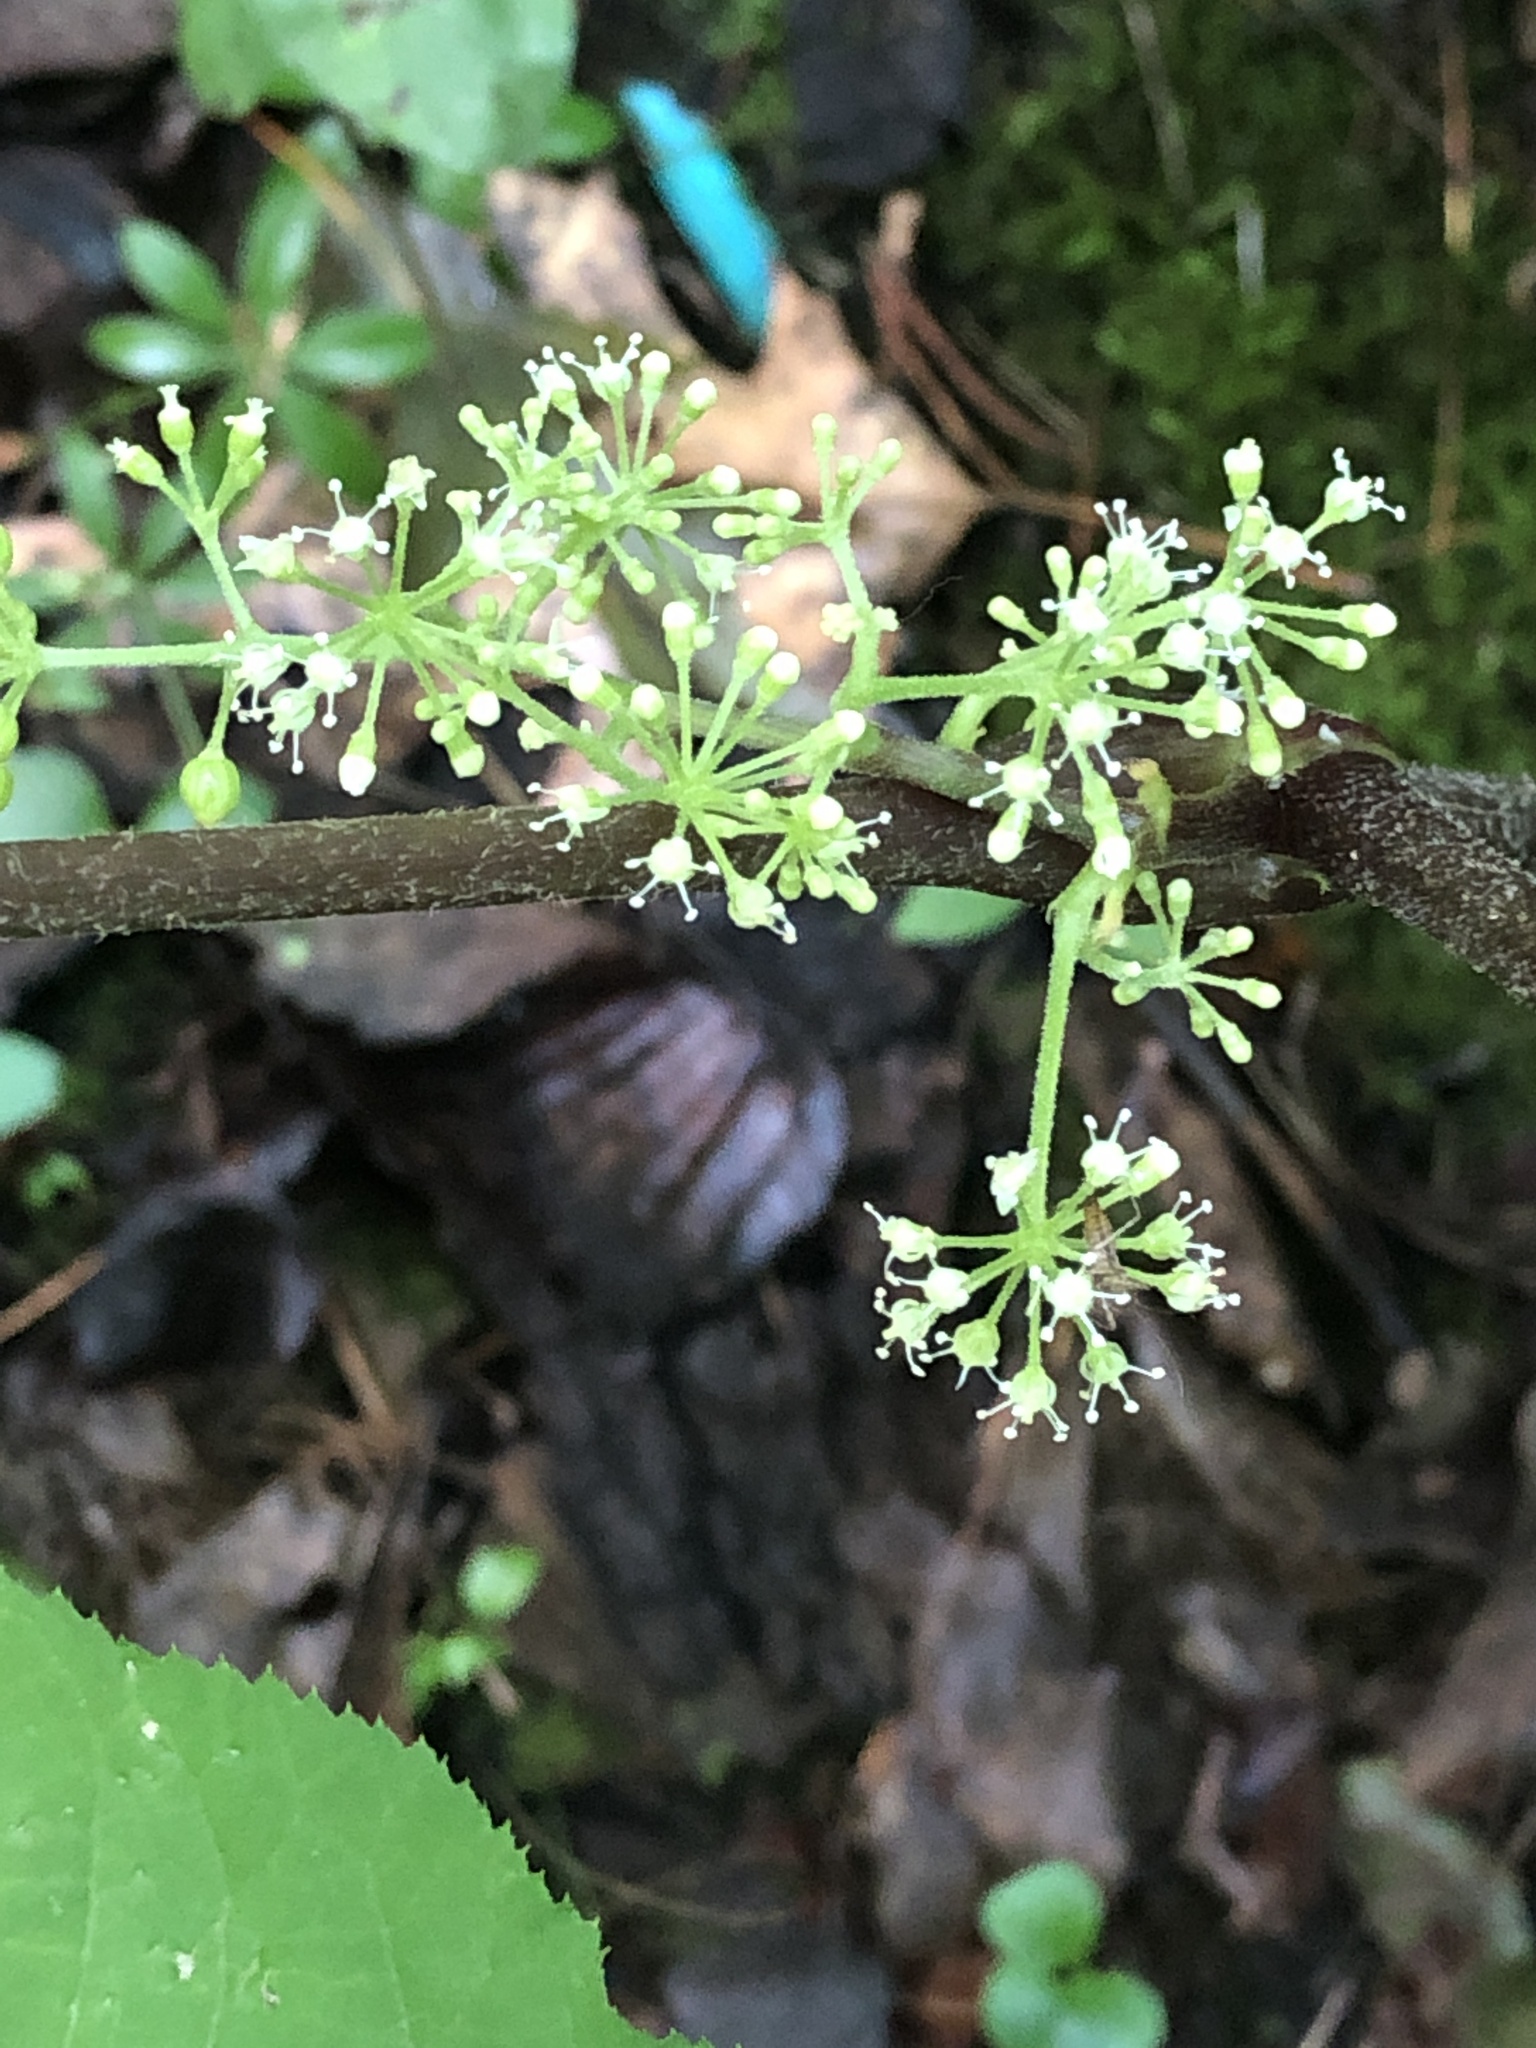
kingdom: Plantae
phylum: Tracheophyta
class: Magnoliopsida
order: Apiales
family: Araliaceae
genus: Aralia
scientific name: Aralia racemosa
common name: American-spikenard
